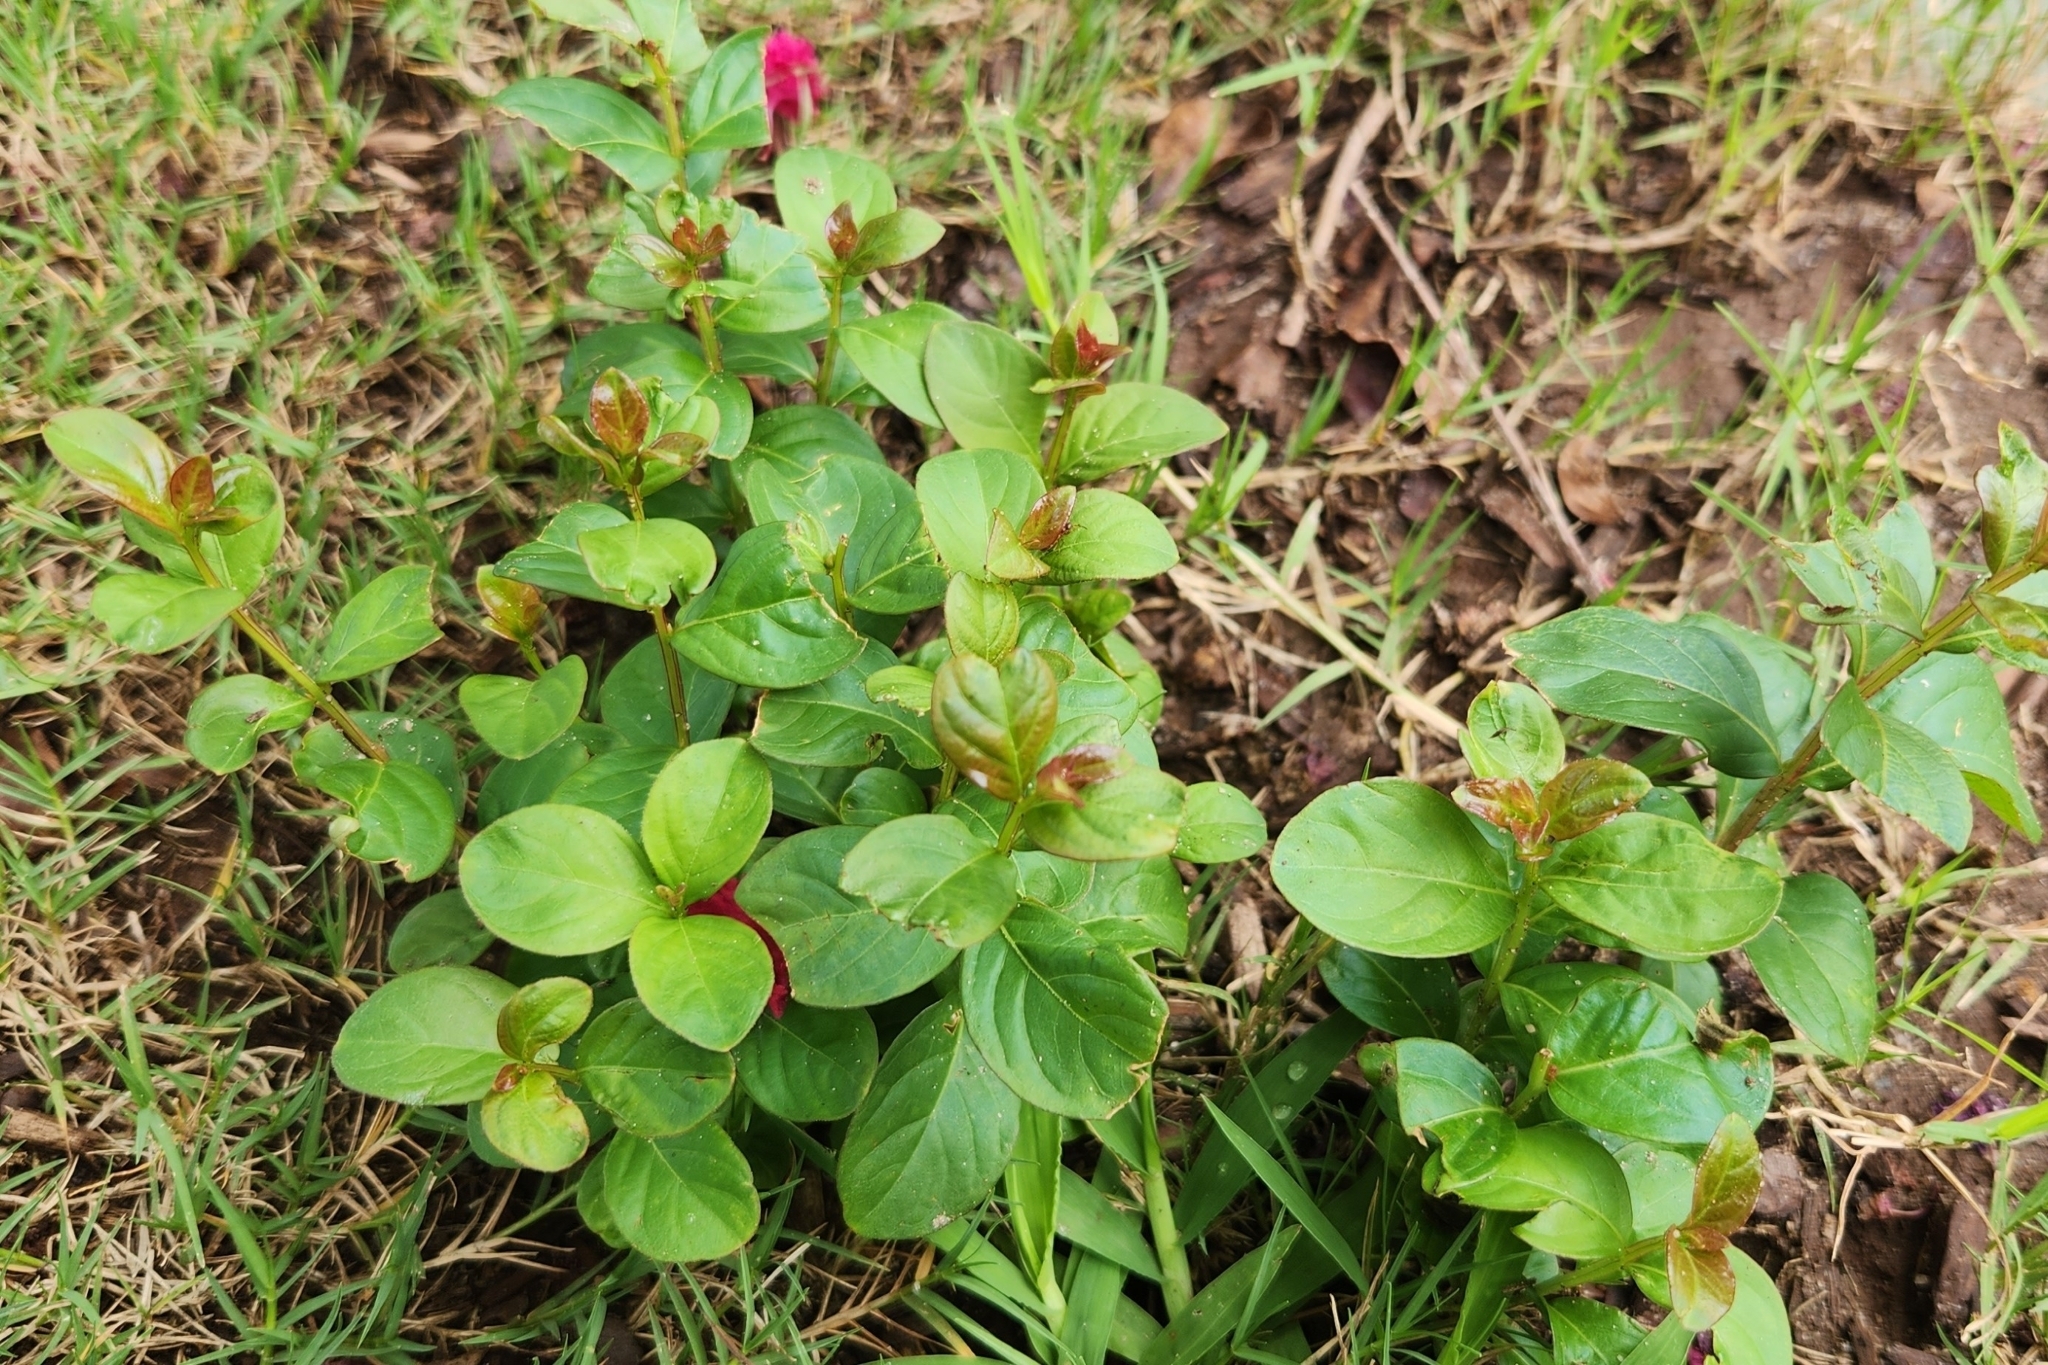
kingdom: Plantae
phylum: Tracheophyta
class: Magnoliopsida
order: Myrtales
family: Lythraceae
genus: Lagerstroemia
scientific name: Lagerstroemia indica
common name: Crape-myrtle
